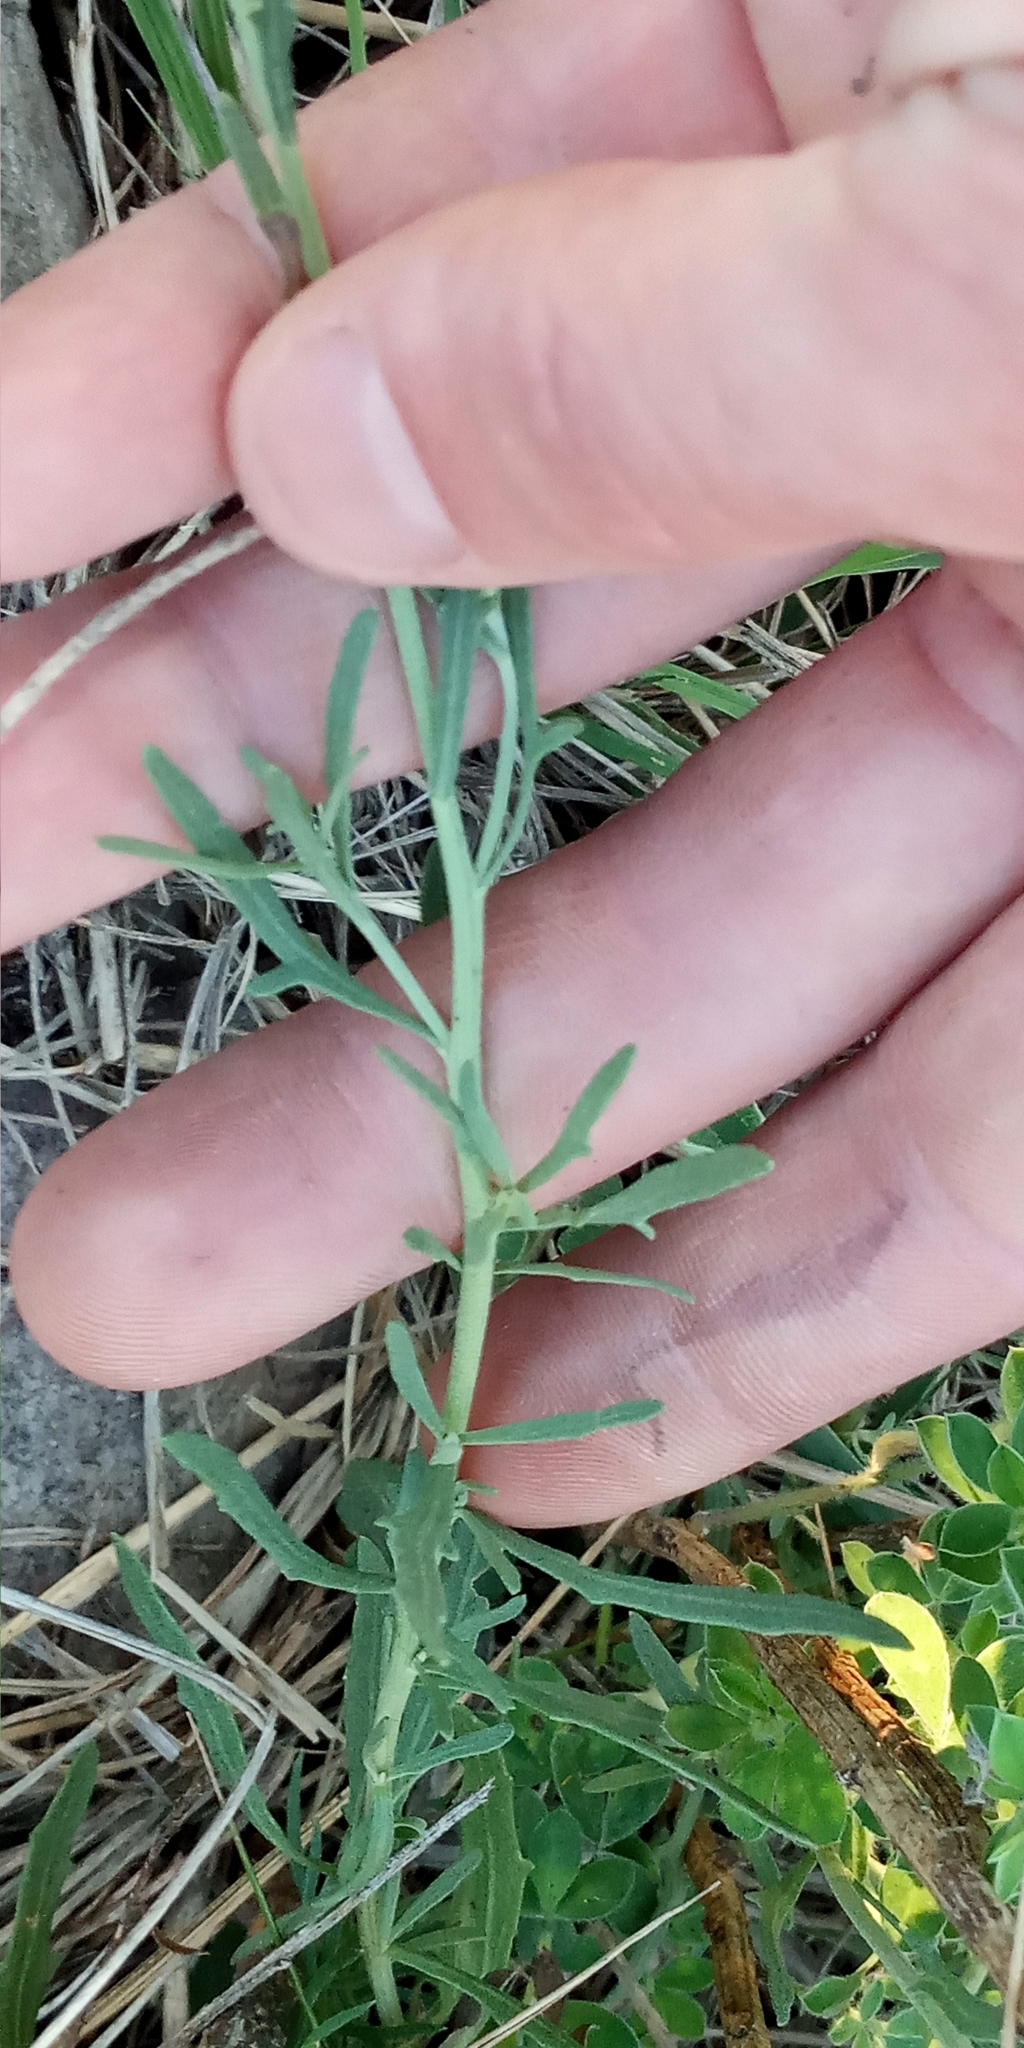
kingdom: Plantae
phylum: Tracheophyta
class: Magnoliopsida
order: Asterales
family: Asteraceae
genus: Helenium
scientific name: Helenium uniflorum
